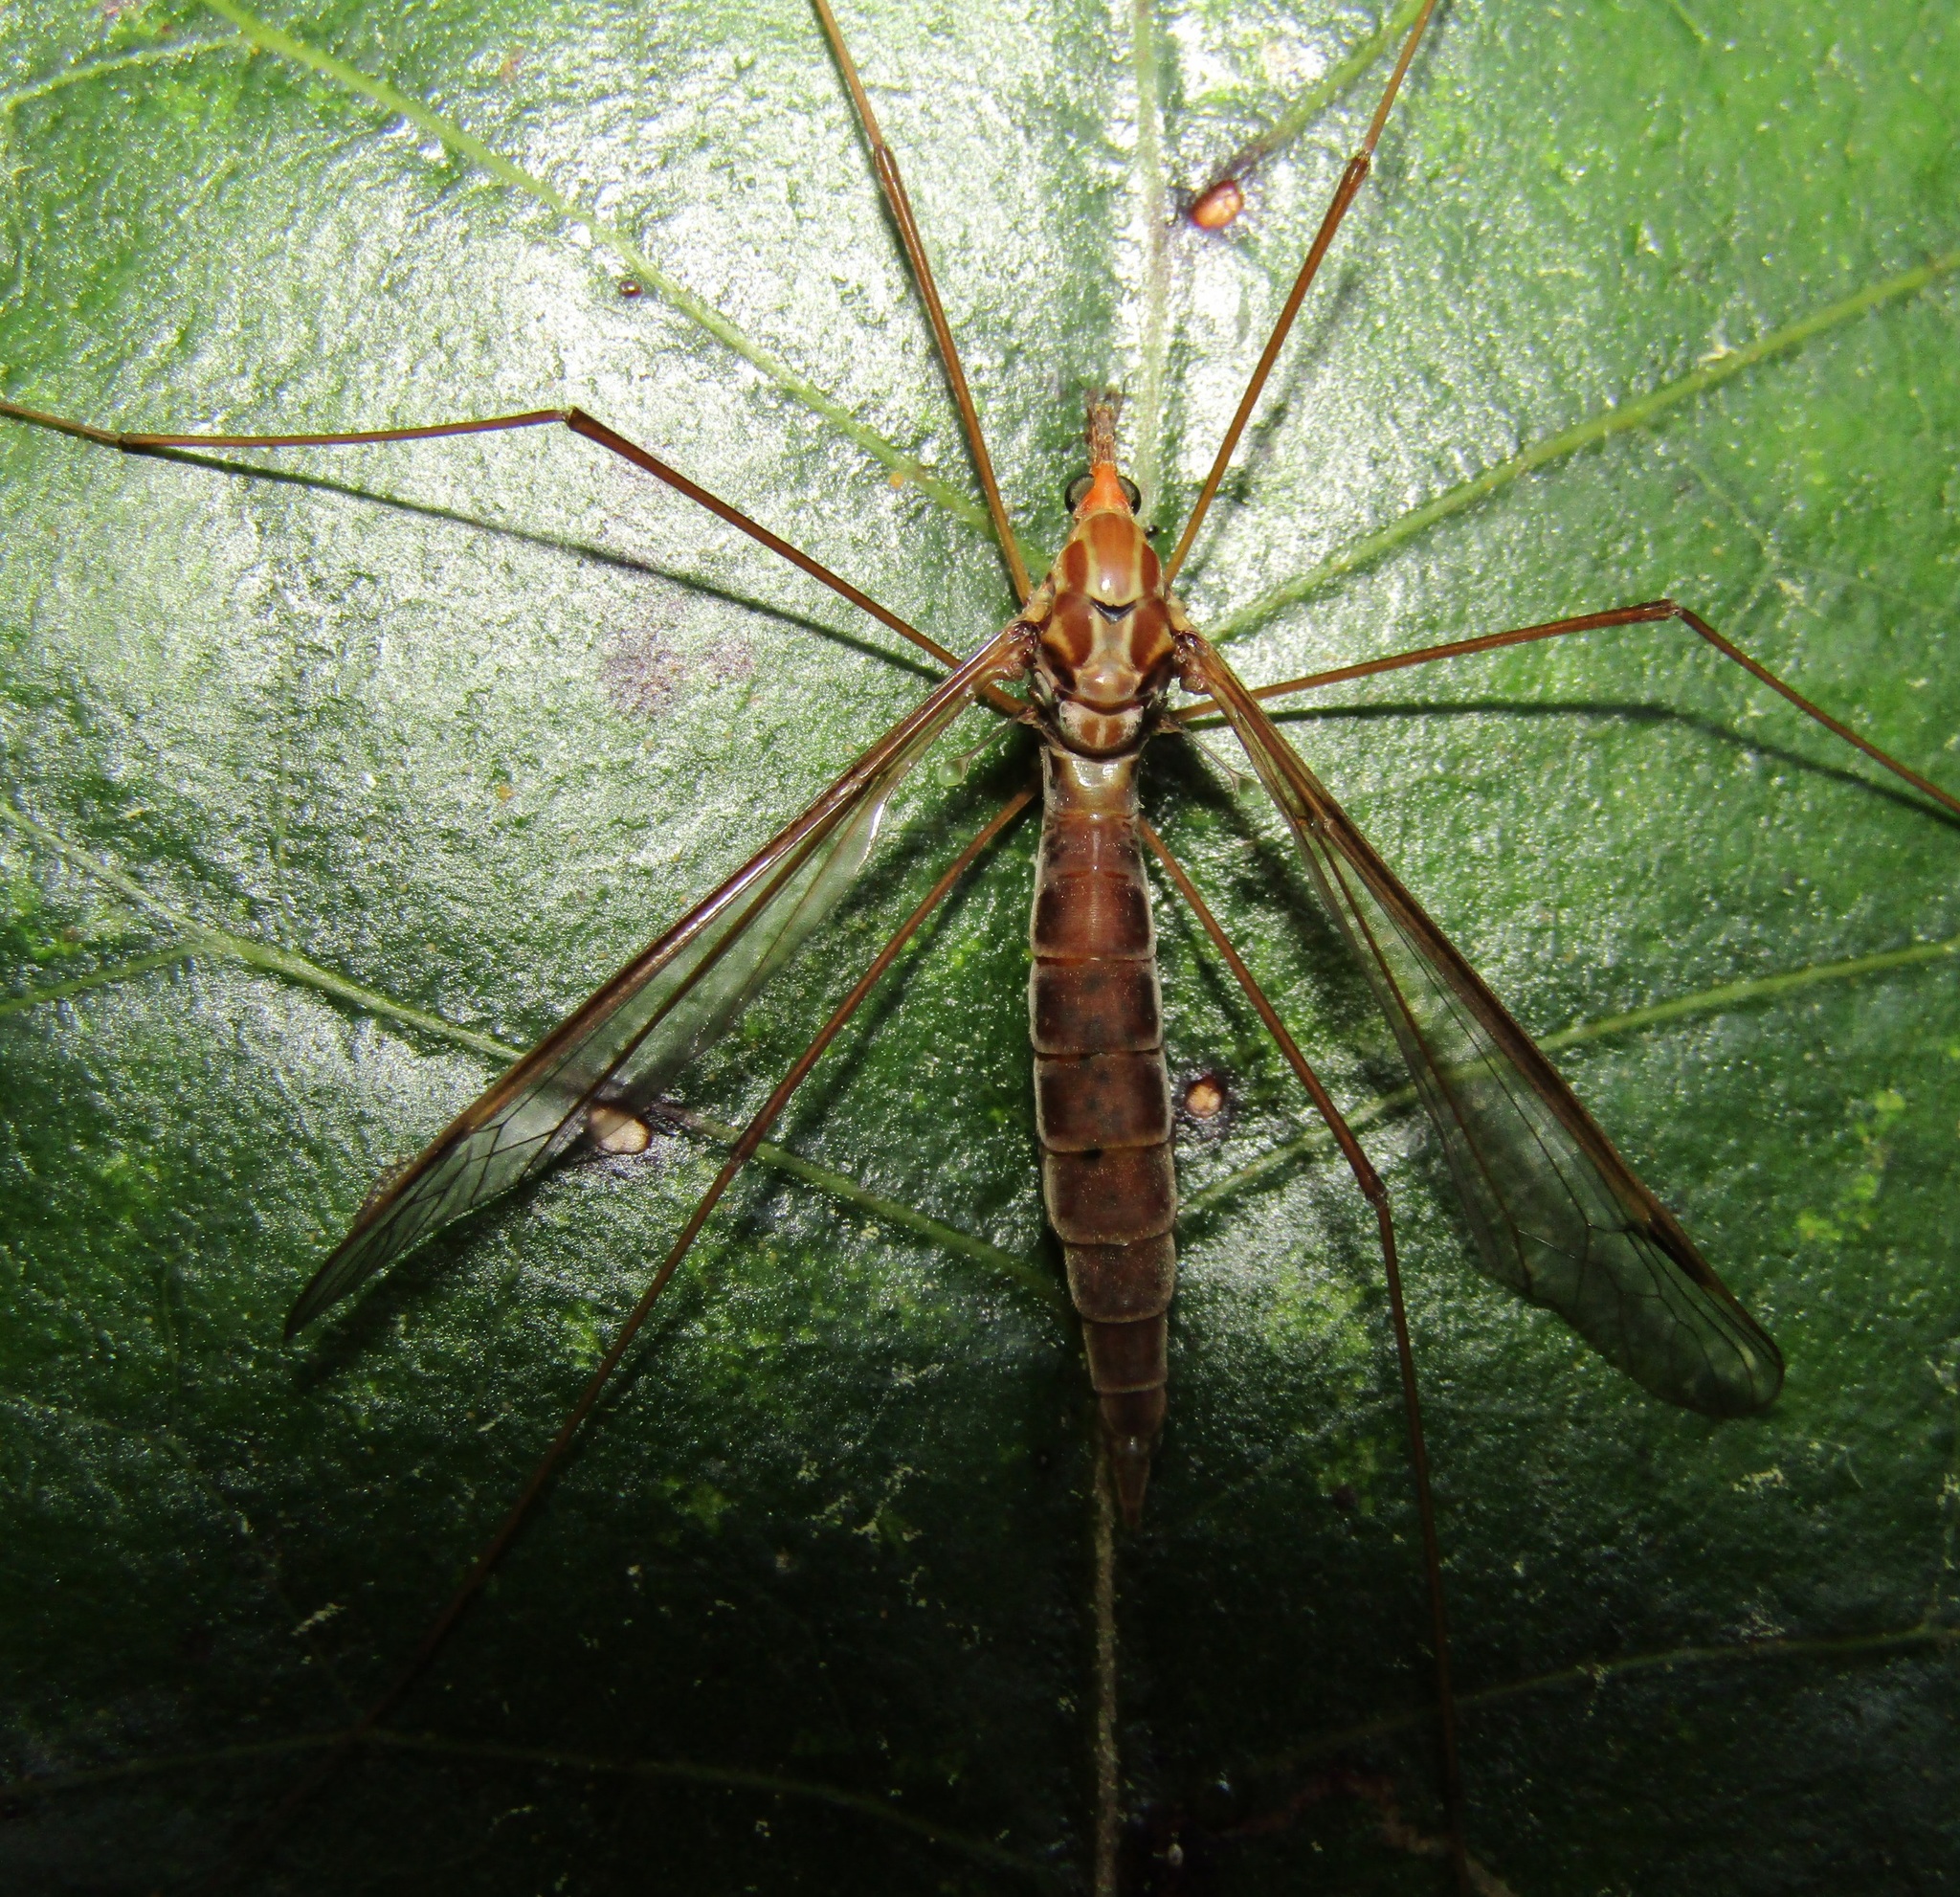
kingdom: Animalia
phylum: Arthropoda
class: Insecta
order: Diptera
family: Tipulidae
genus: Leptotarsus
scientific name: Leptotarsus elongatus
